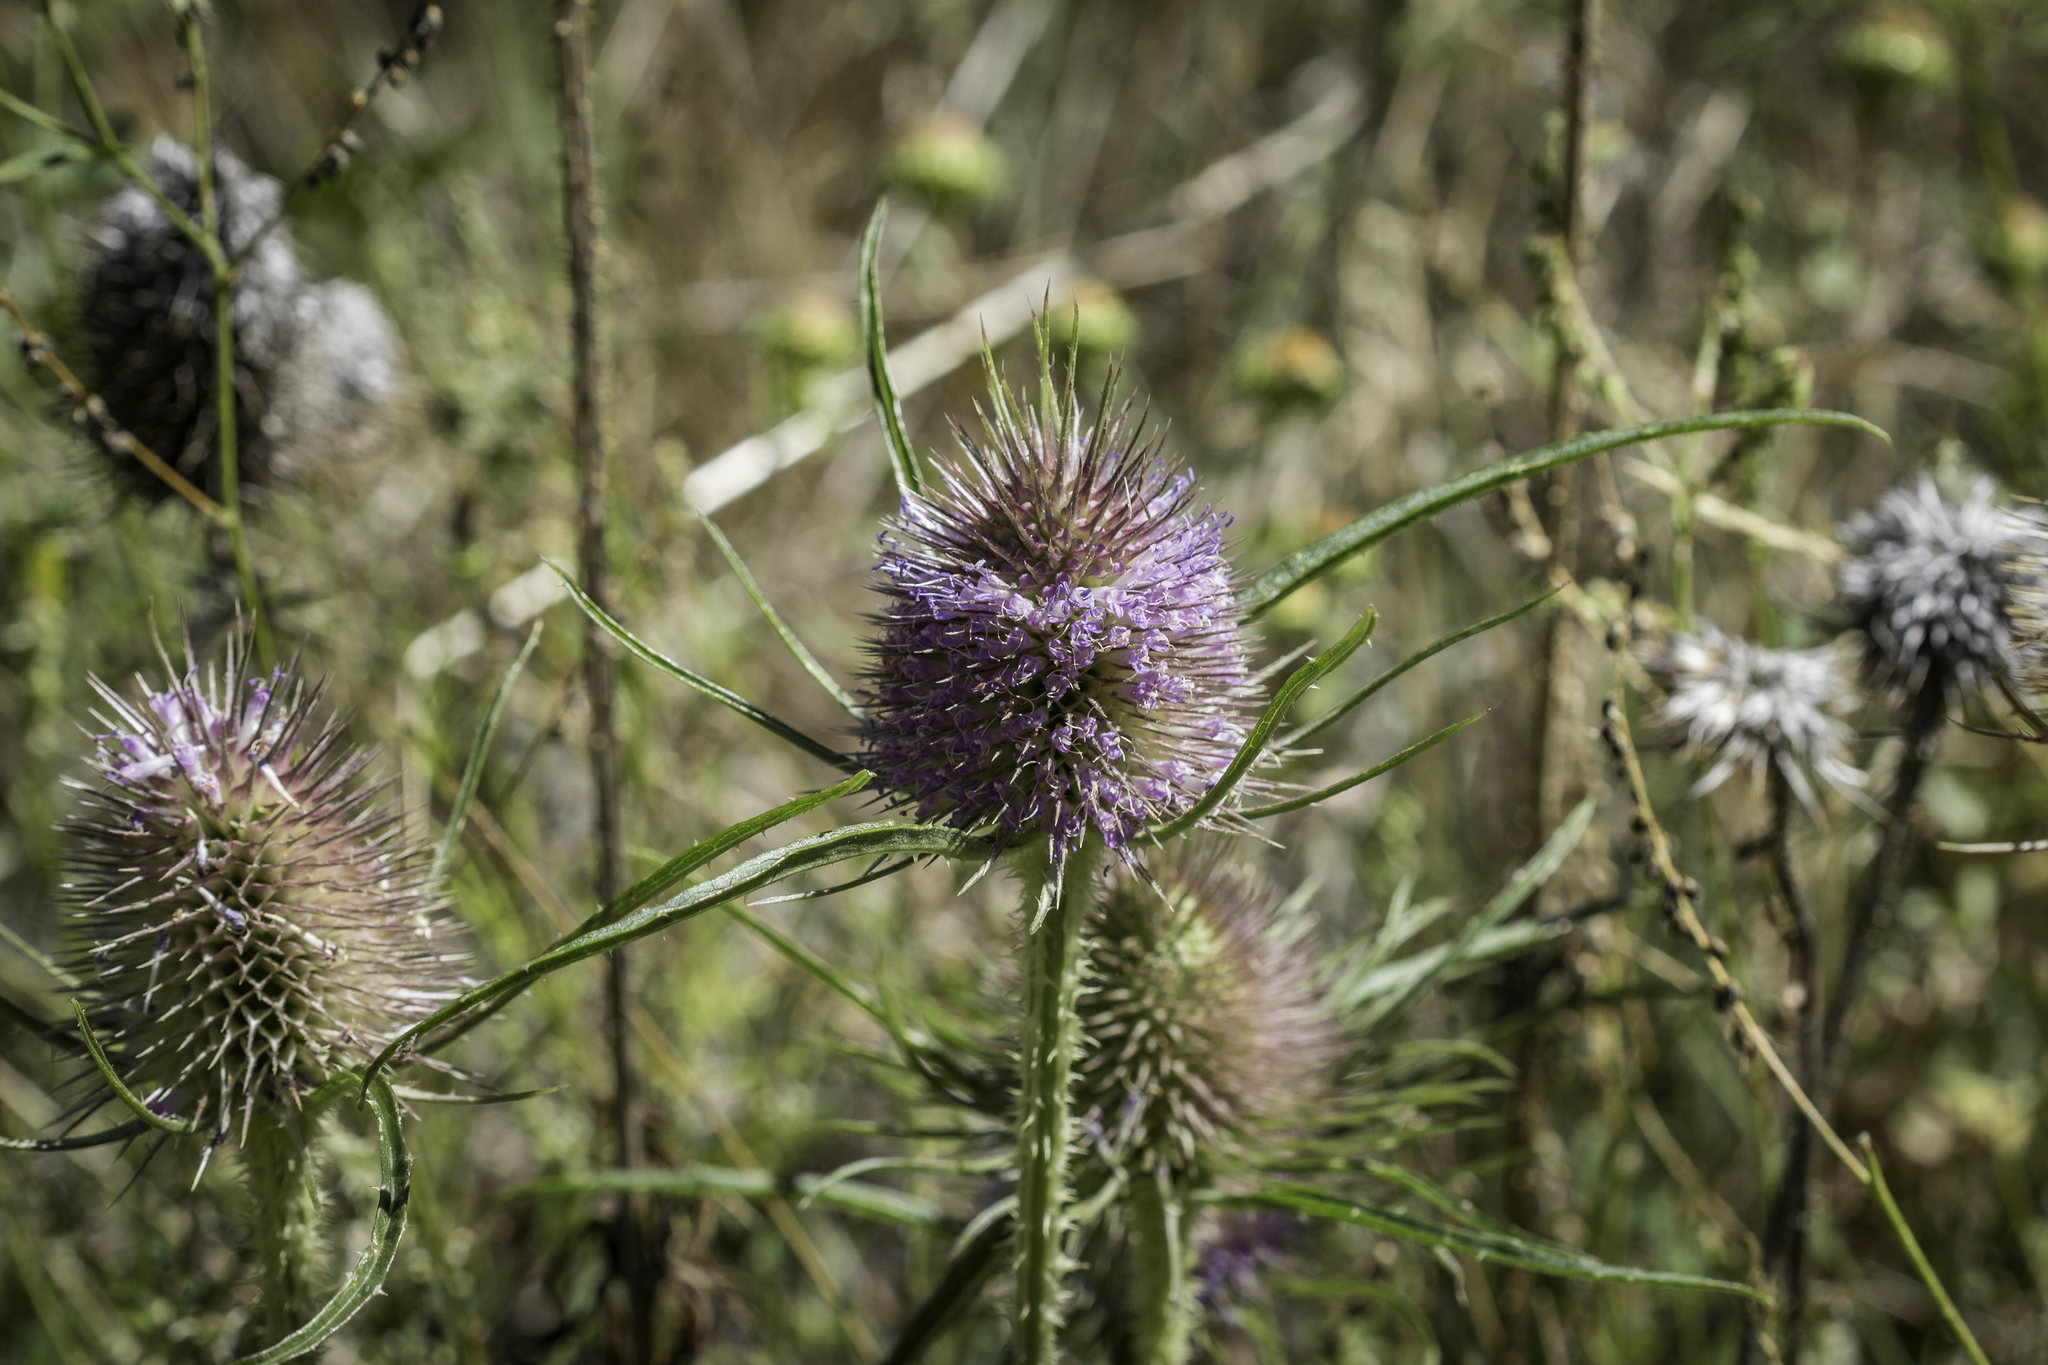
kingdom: Plantae
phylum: Tracheophyta
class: Magnoliopsida
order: Dipsacales
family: Caprifoliaceae
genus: Dipsacus
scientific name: Dipsacus fullonum
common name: Teasel
